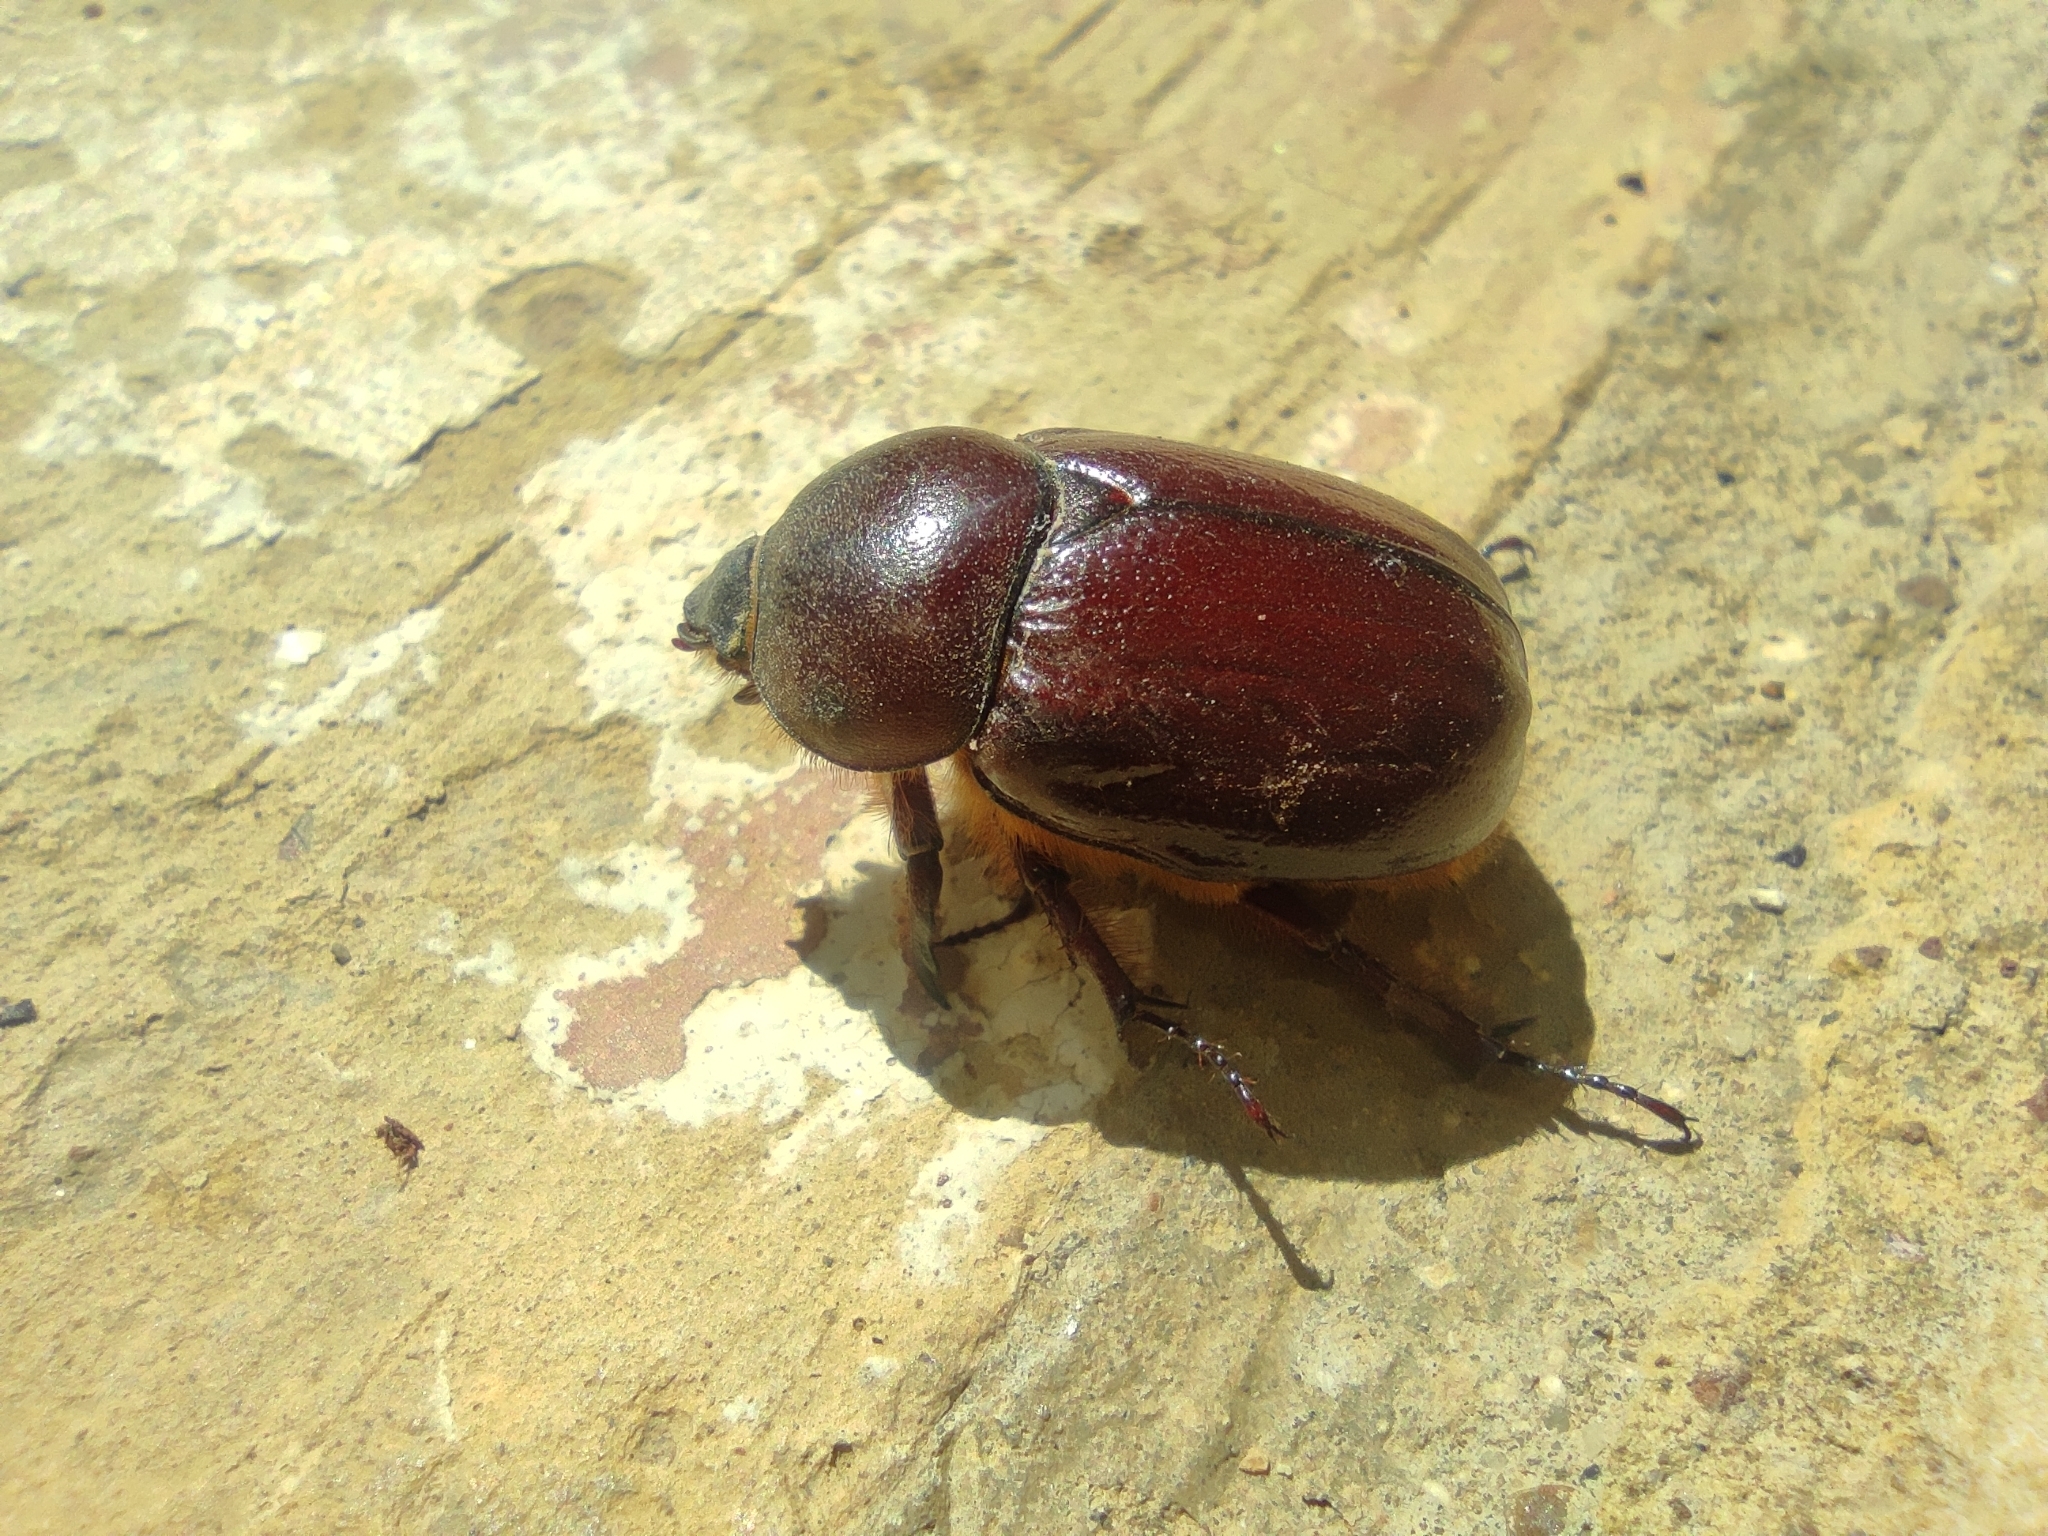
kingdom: Animalia
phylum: Arthropoda
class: Insecta
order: Coleoptera
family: Scarabaeidae
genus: Phyllognathus
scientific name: Phyllognathus excavatus
